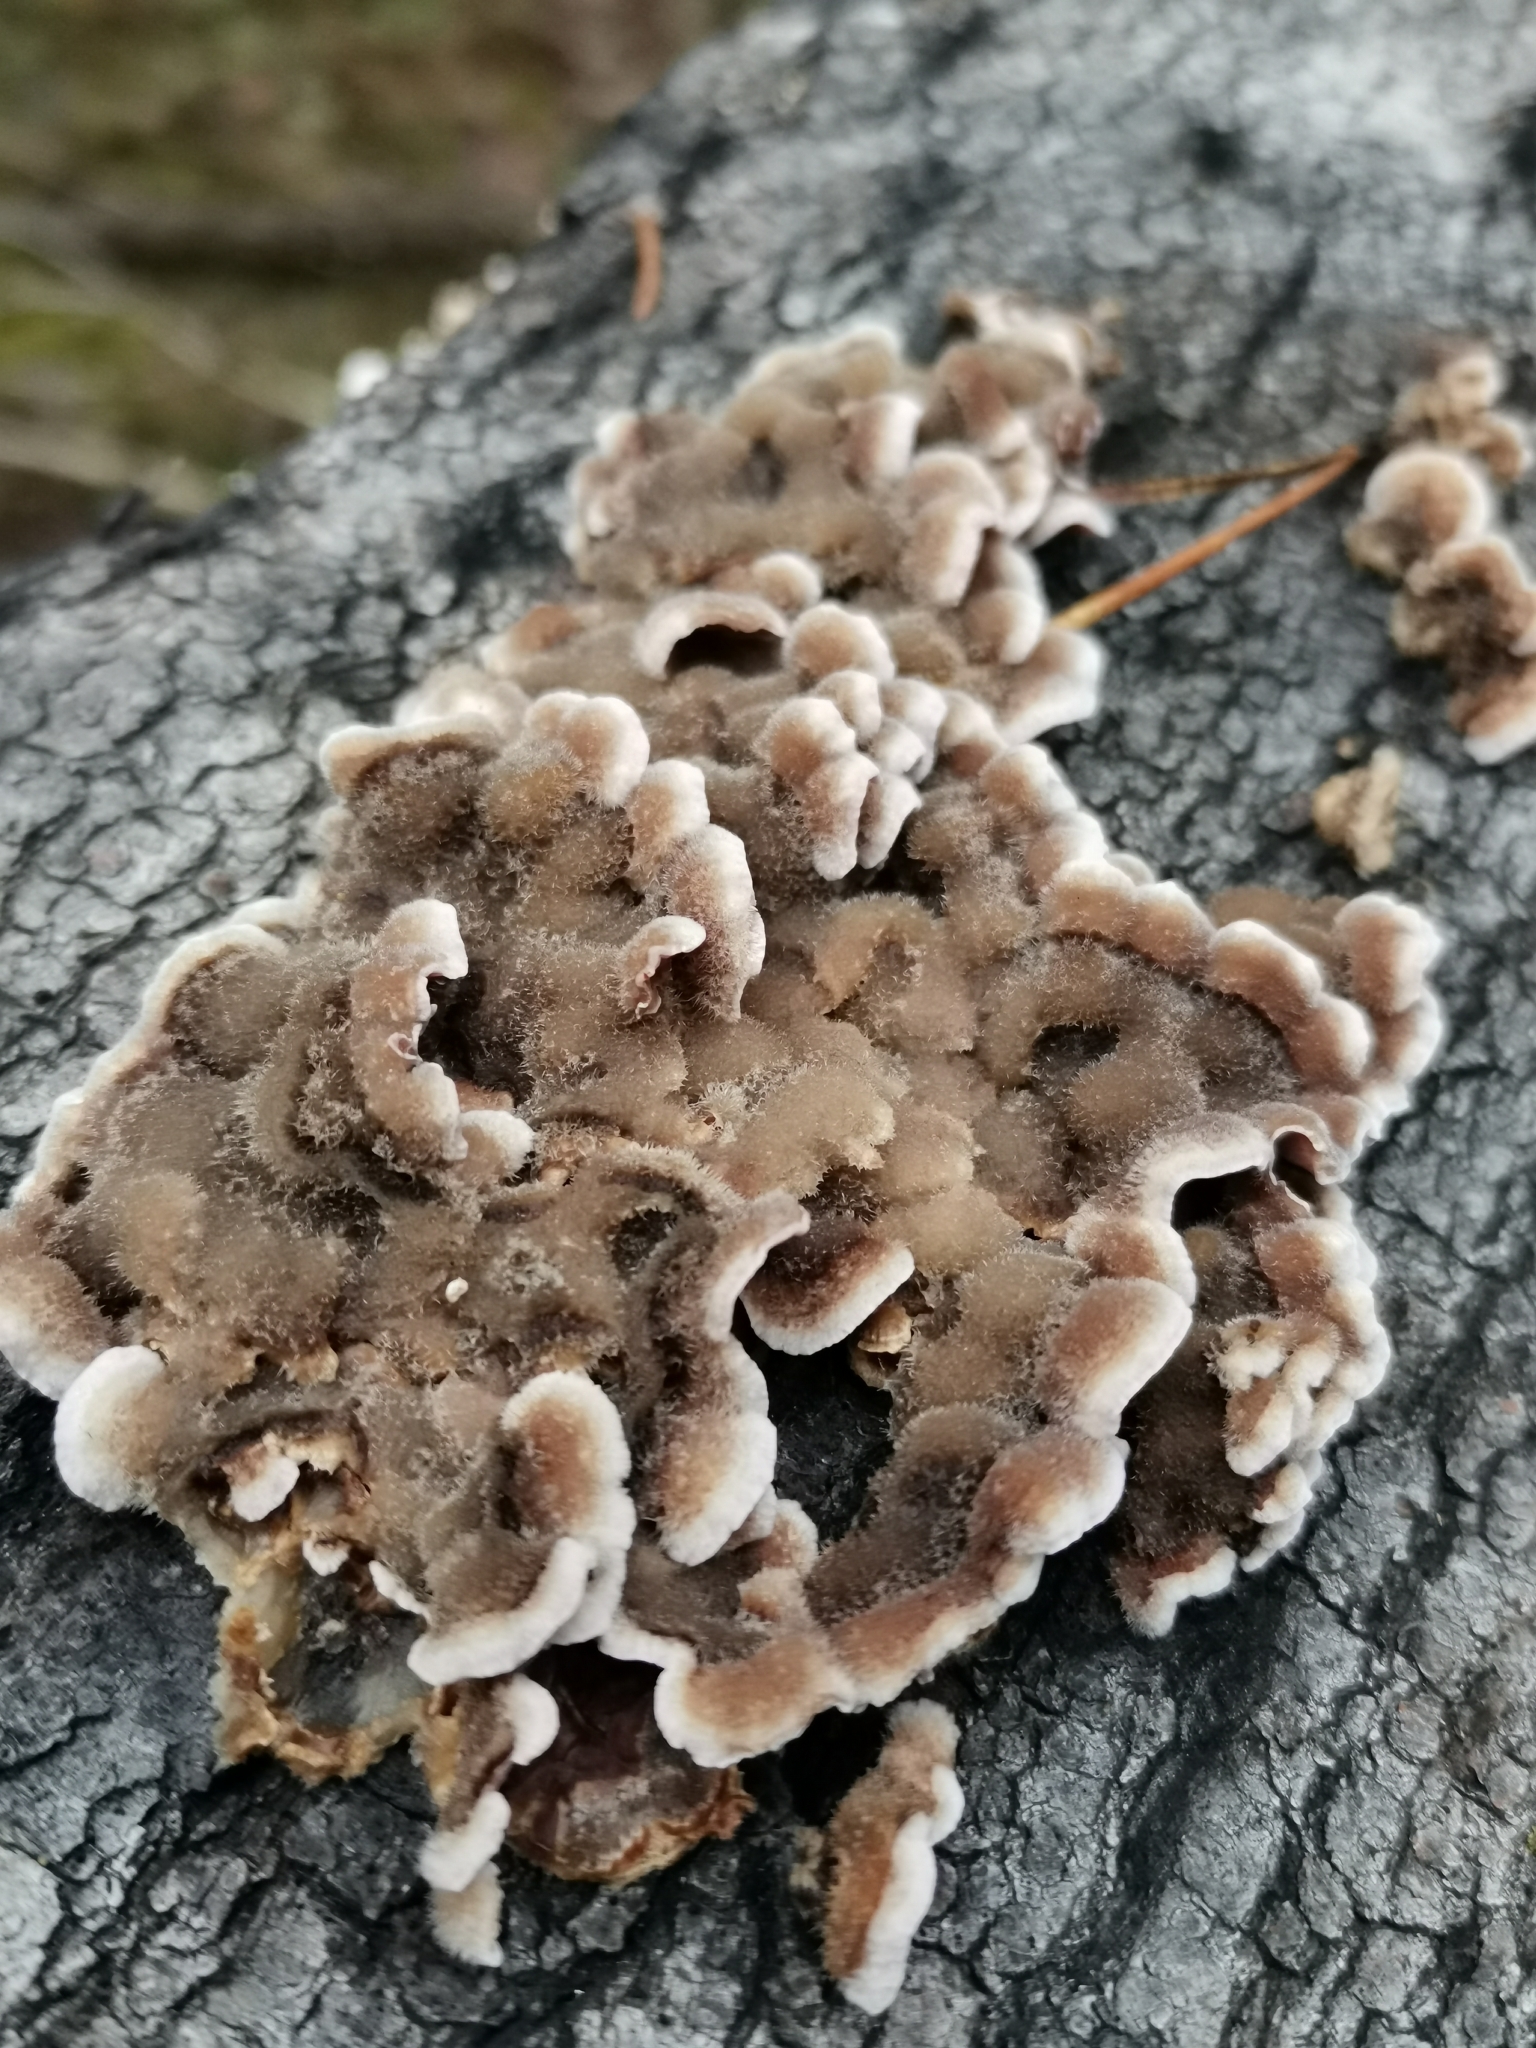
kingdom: Fungi
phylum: Basidiomycota
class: Agaricomycetes
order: Agaricales
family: Cyphellaceae
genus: Chondrostereum
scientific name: Chondrostereum purpureum
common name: Silver leaf disease
